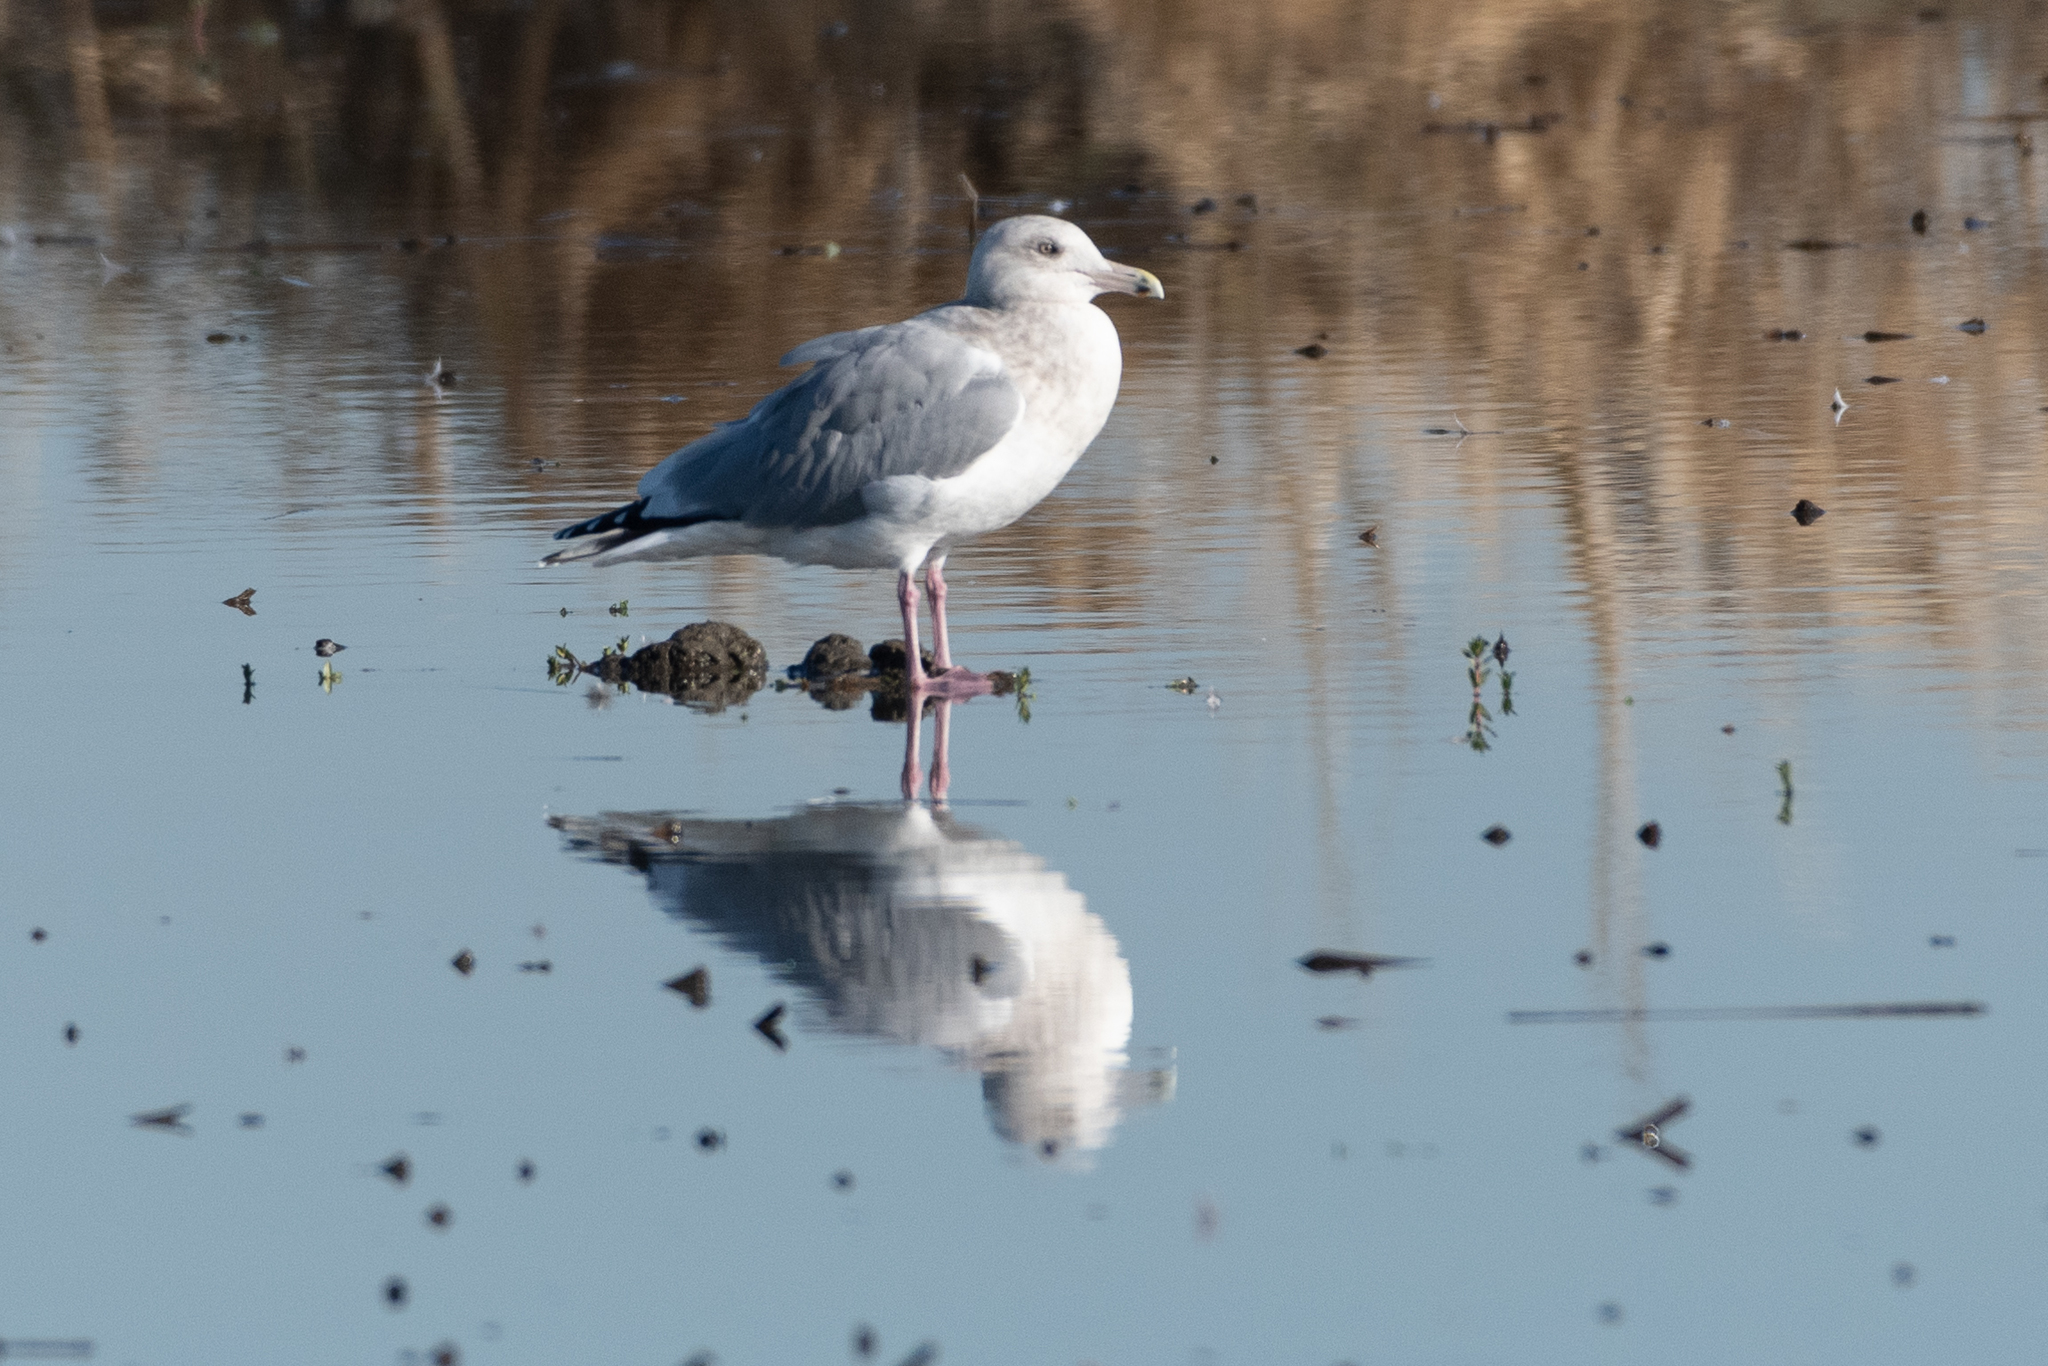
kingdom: Animalia
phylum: Chordata
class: Aves
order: Charadriiformes
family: Laridae
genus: Larus
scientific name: Larus argentatus
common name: Herring gull
